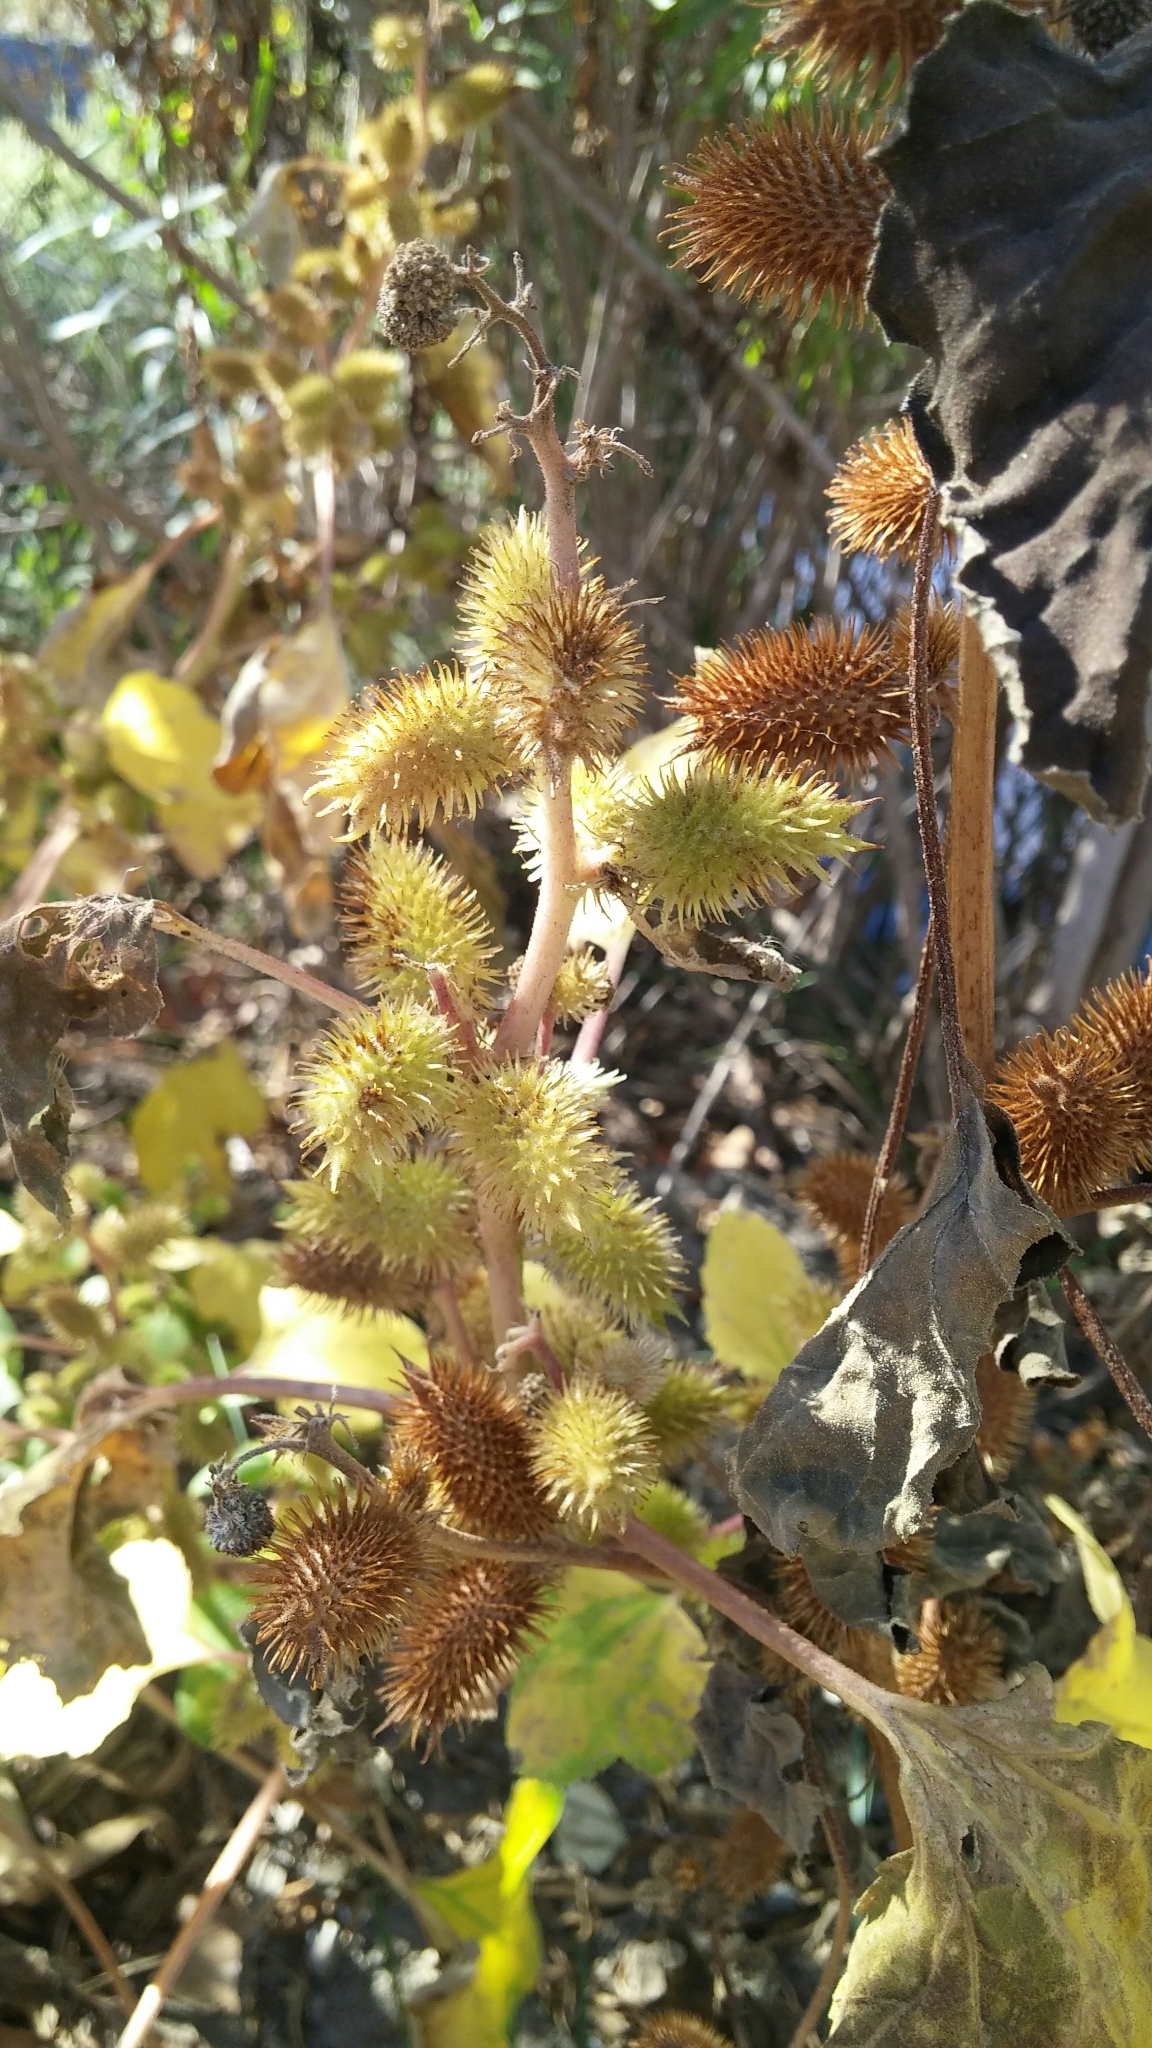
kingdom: Plantae
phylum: Tracheophyta
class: Magnoliopsida
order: Asterales
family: Asteraceae
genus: Xanthium
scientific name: Xanthium strumarium
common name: Rough cocklebur
